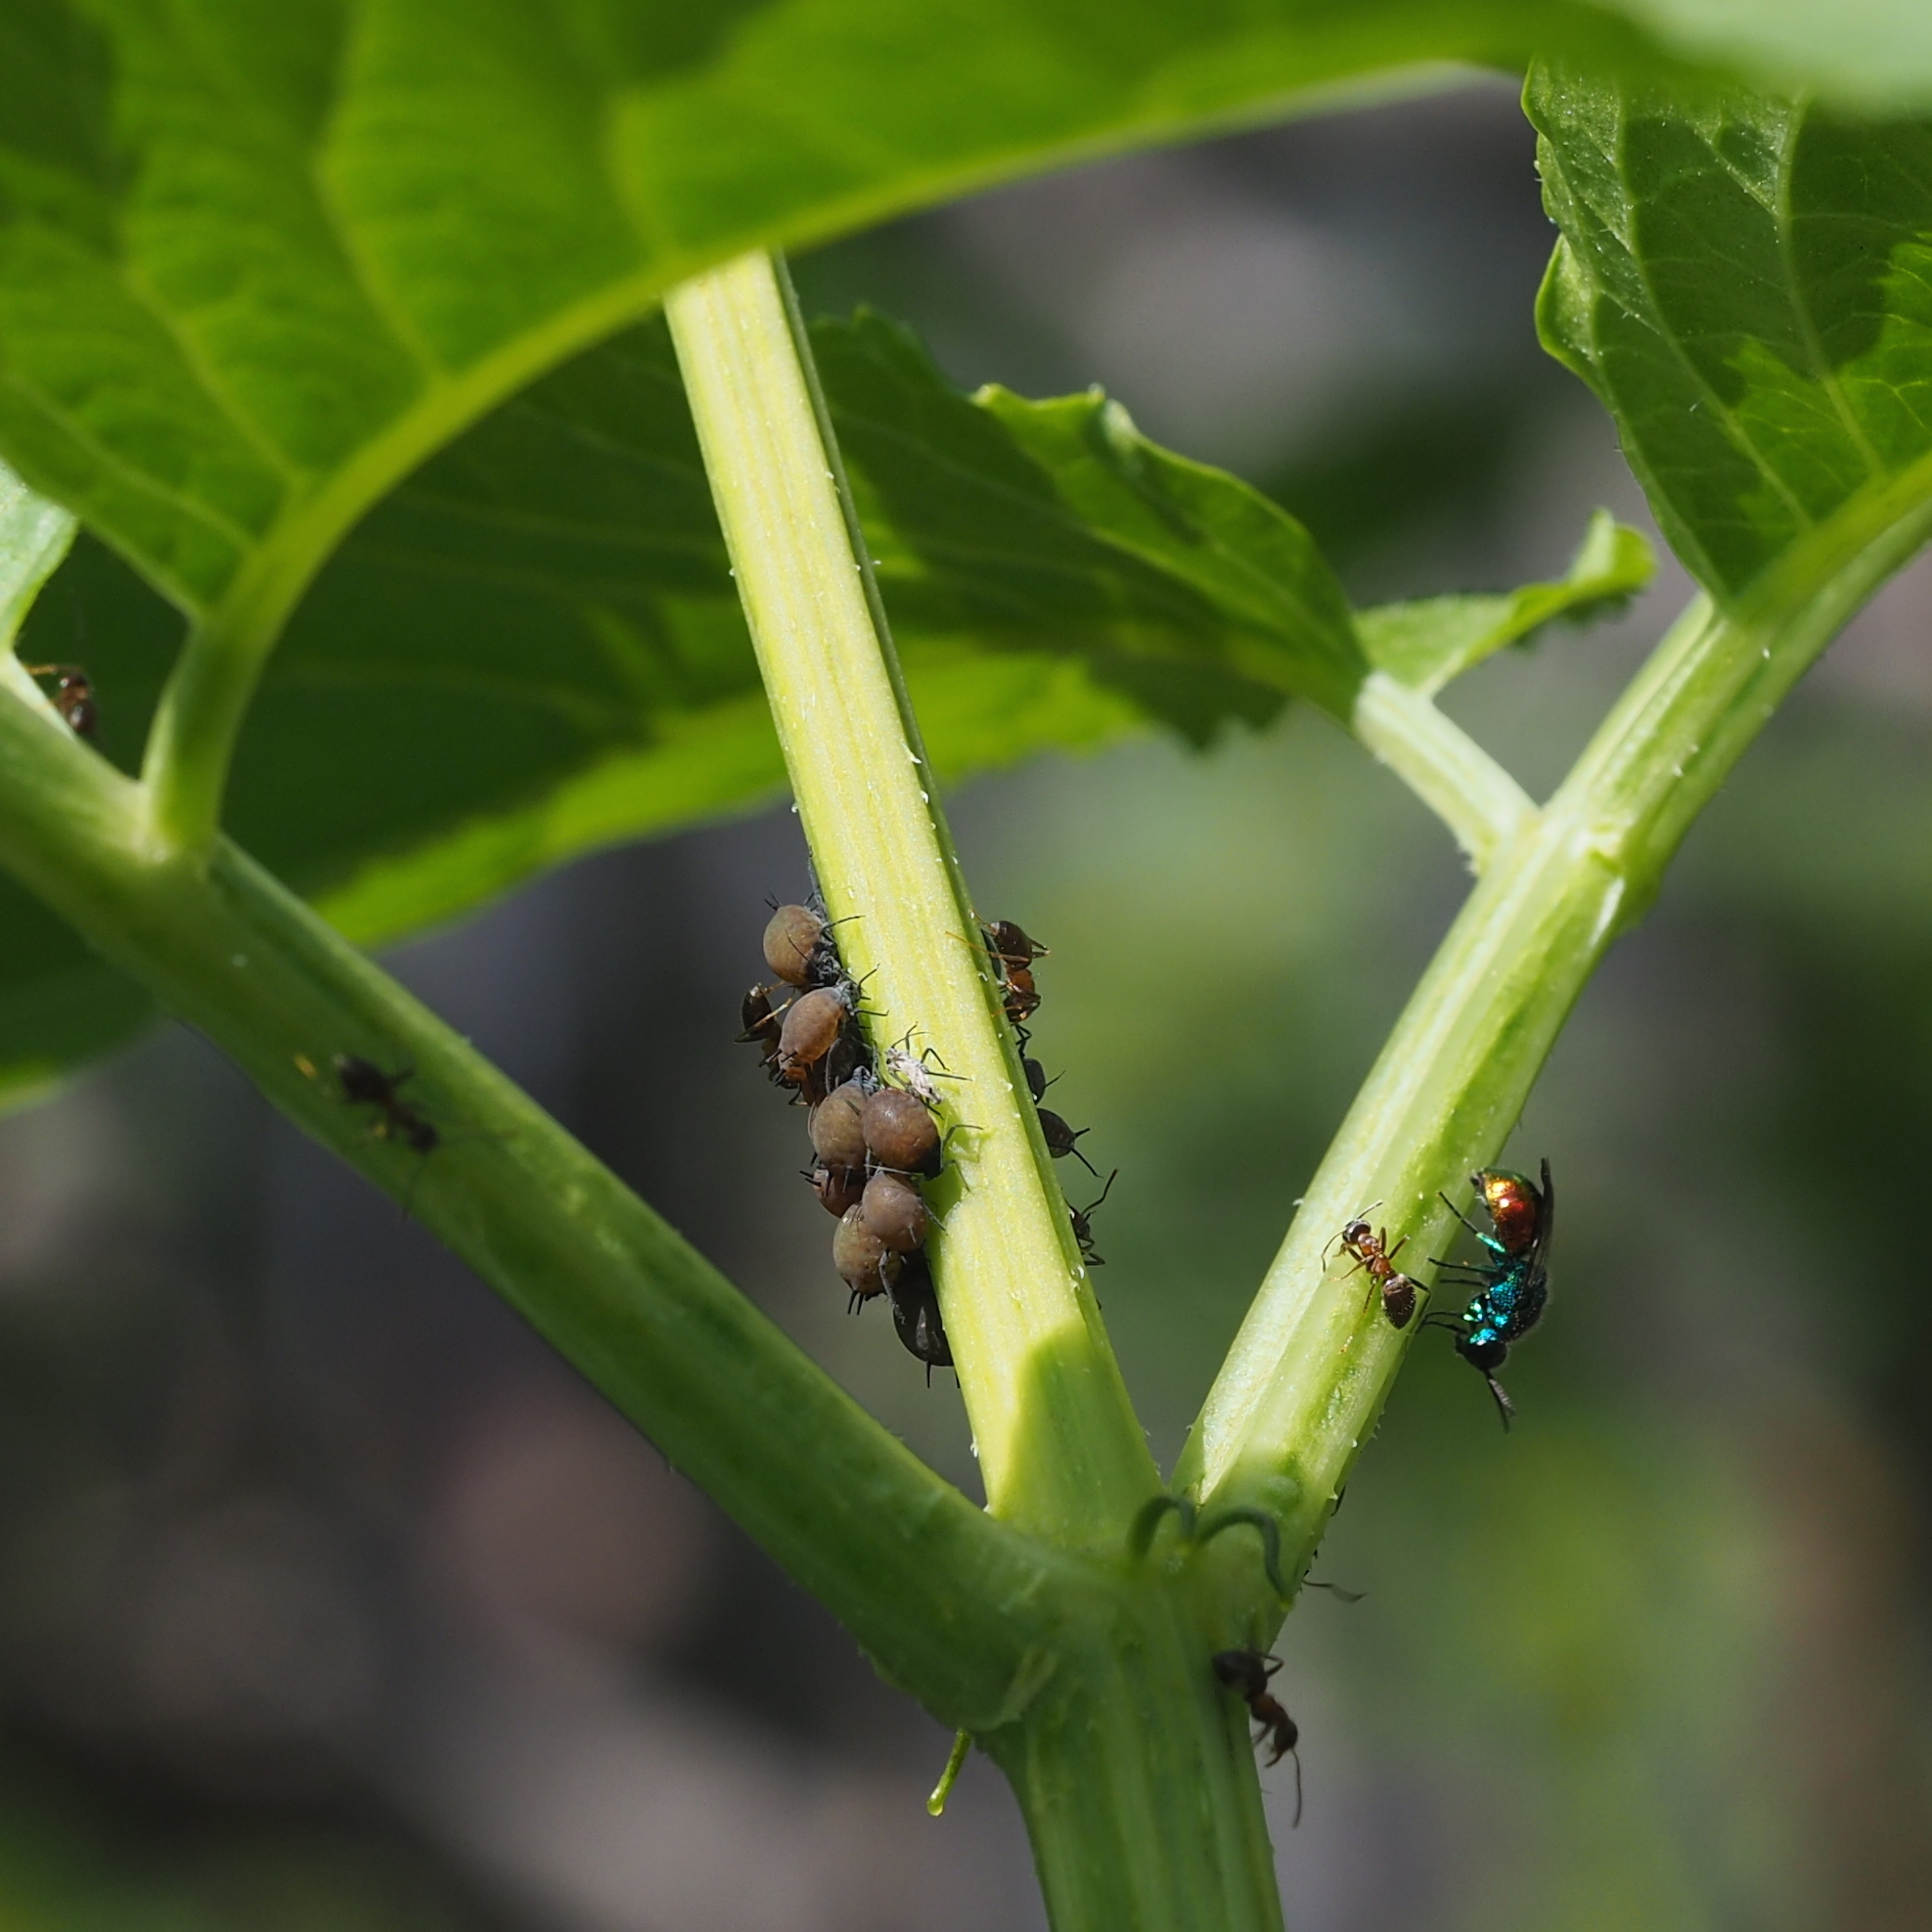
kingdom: Animalia
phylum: Arthropoda
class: Insecta
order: Hymenoptera
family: Chrysididae
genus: Pseudomalus
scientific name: Pseudomalus auratus
